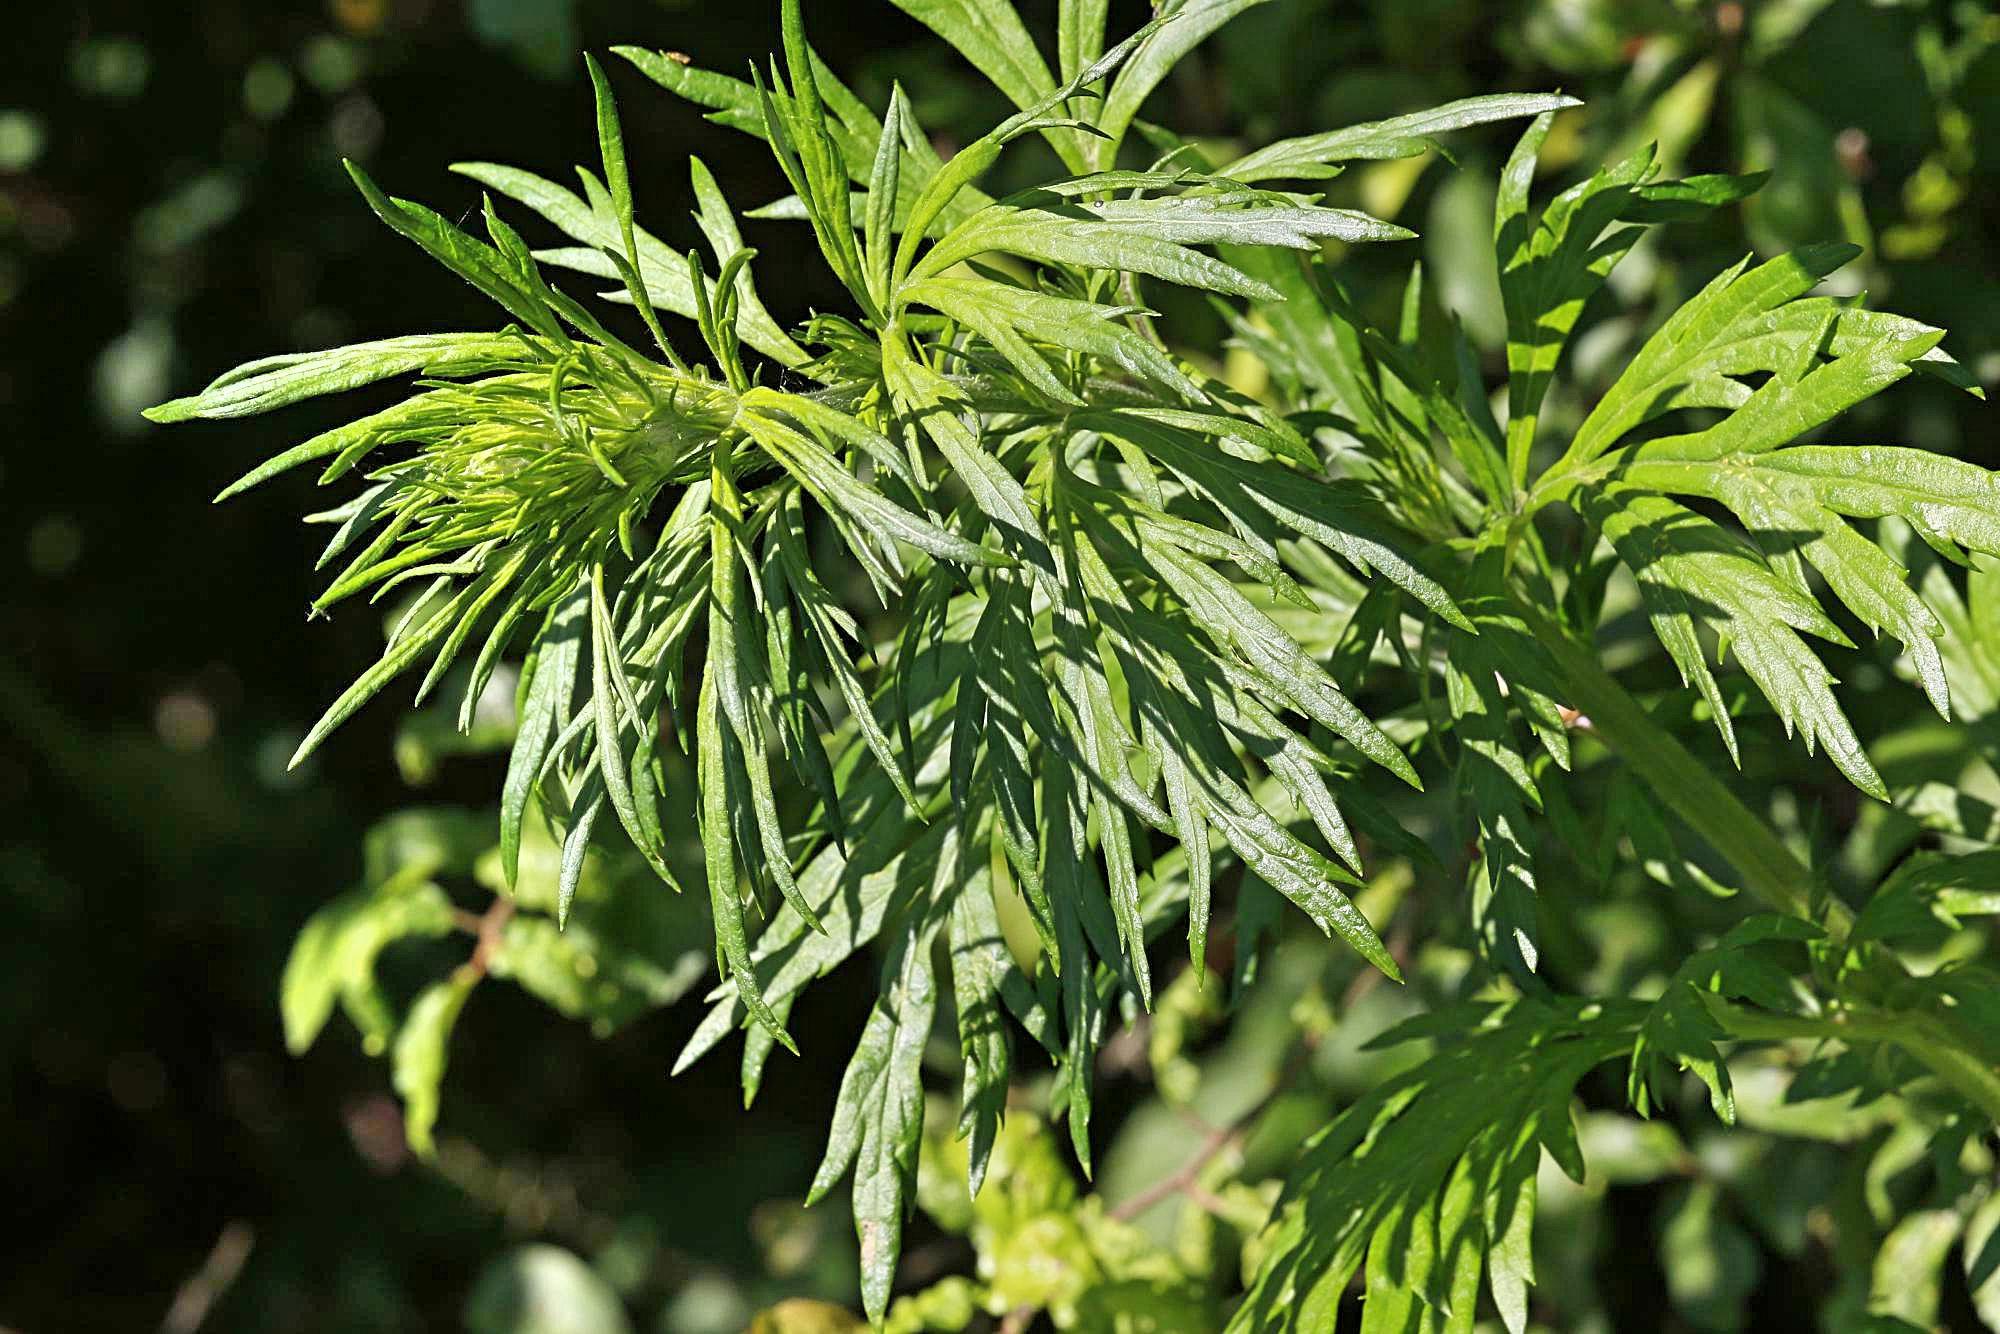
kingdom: Plantae
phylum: Tracheophyta
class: Magnoliopsida
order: Asterales
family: Asteraceae
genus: Artemisia
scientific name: Artemisia vulgaris
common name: Mugwort
